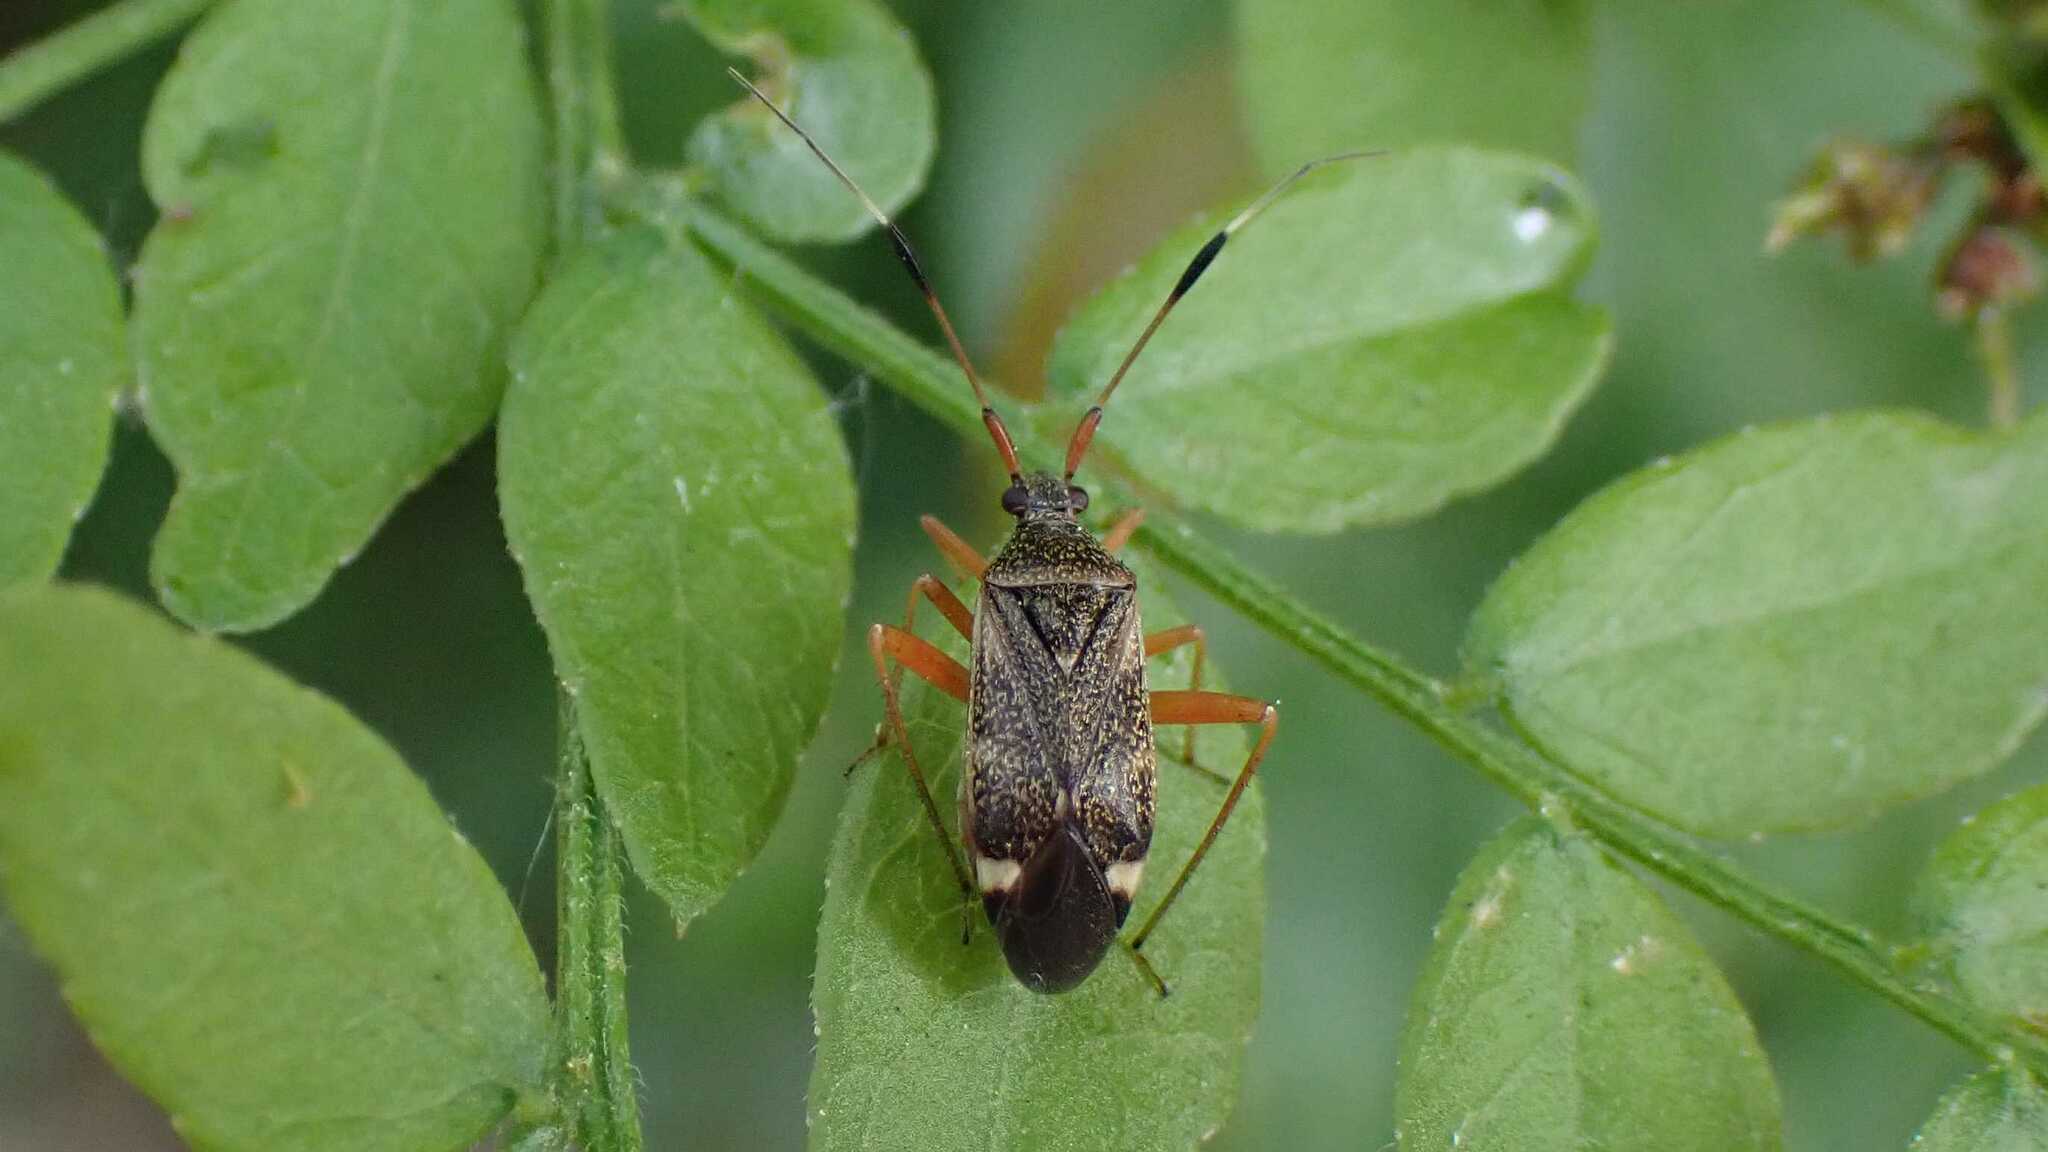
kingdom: Animalia
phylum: Arthropoda
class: Insecta
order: Hemiptera
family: Miridae
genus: Closterotomus
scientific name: Closterotomus biclavatus
